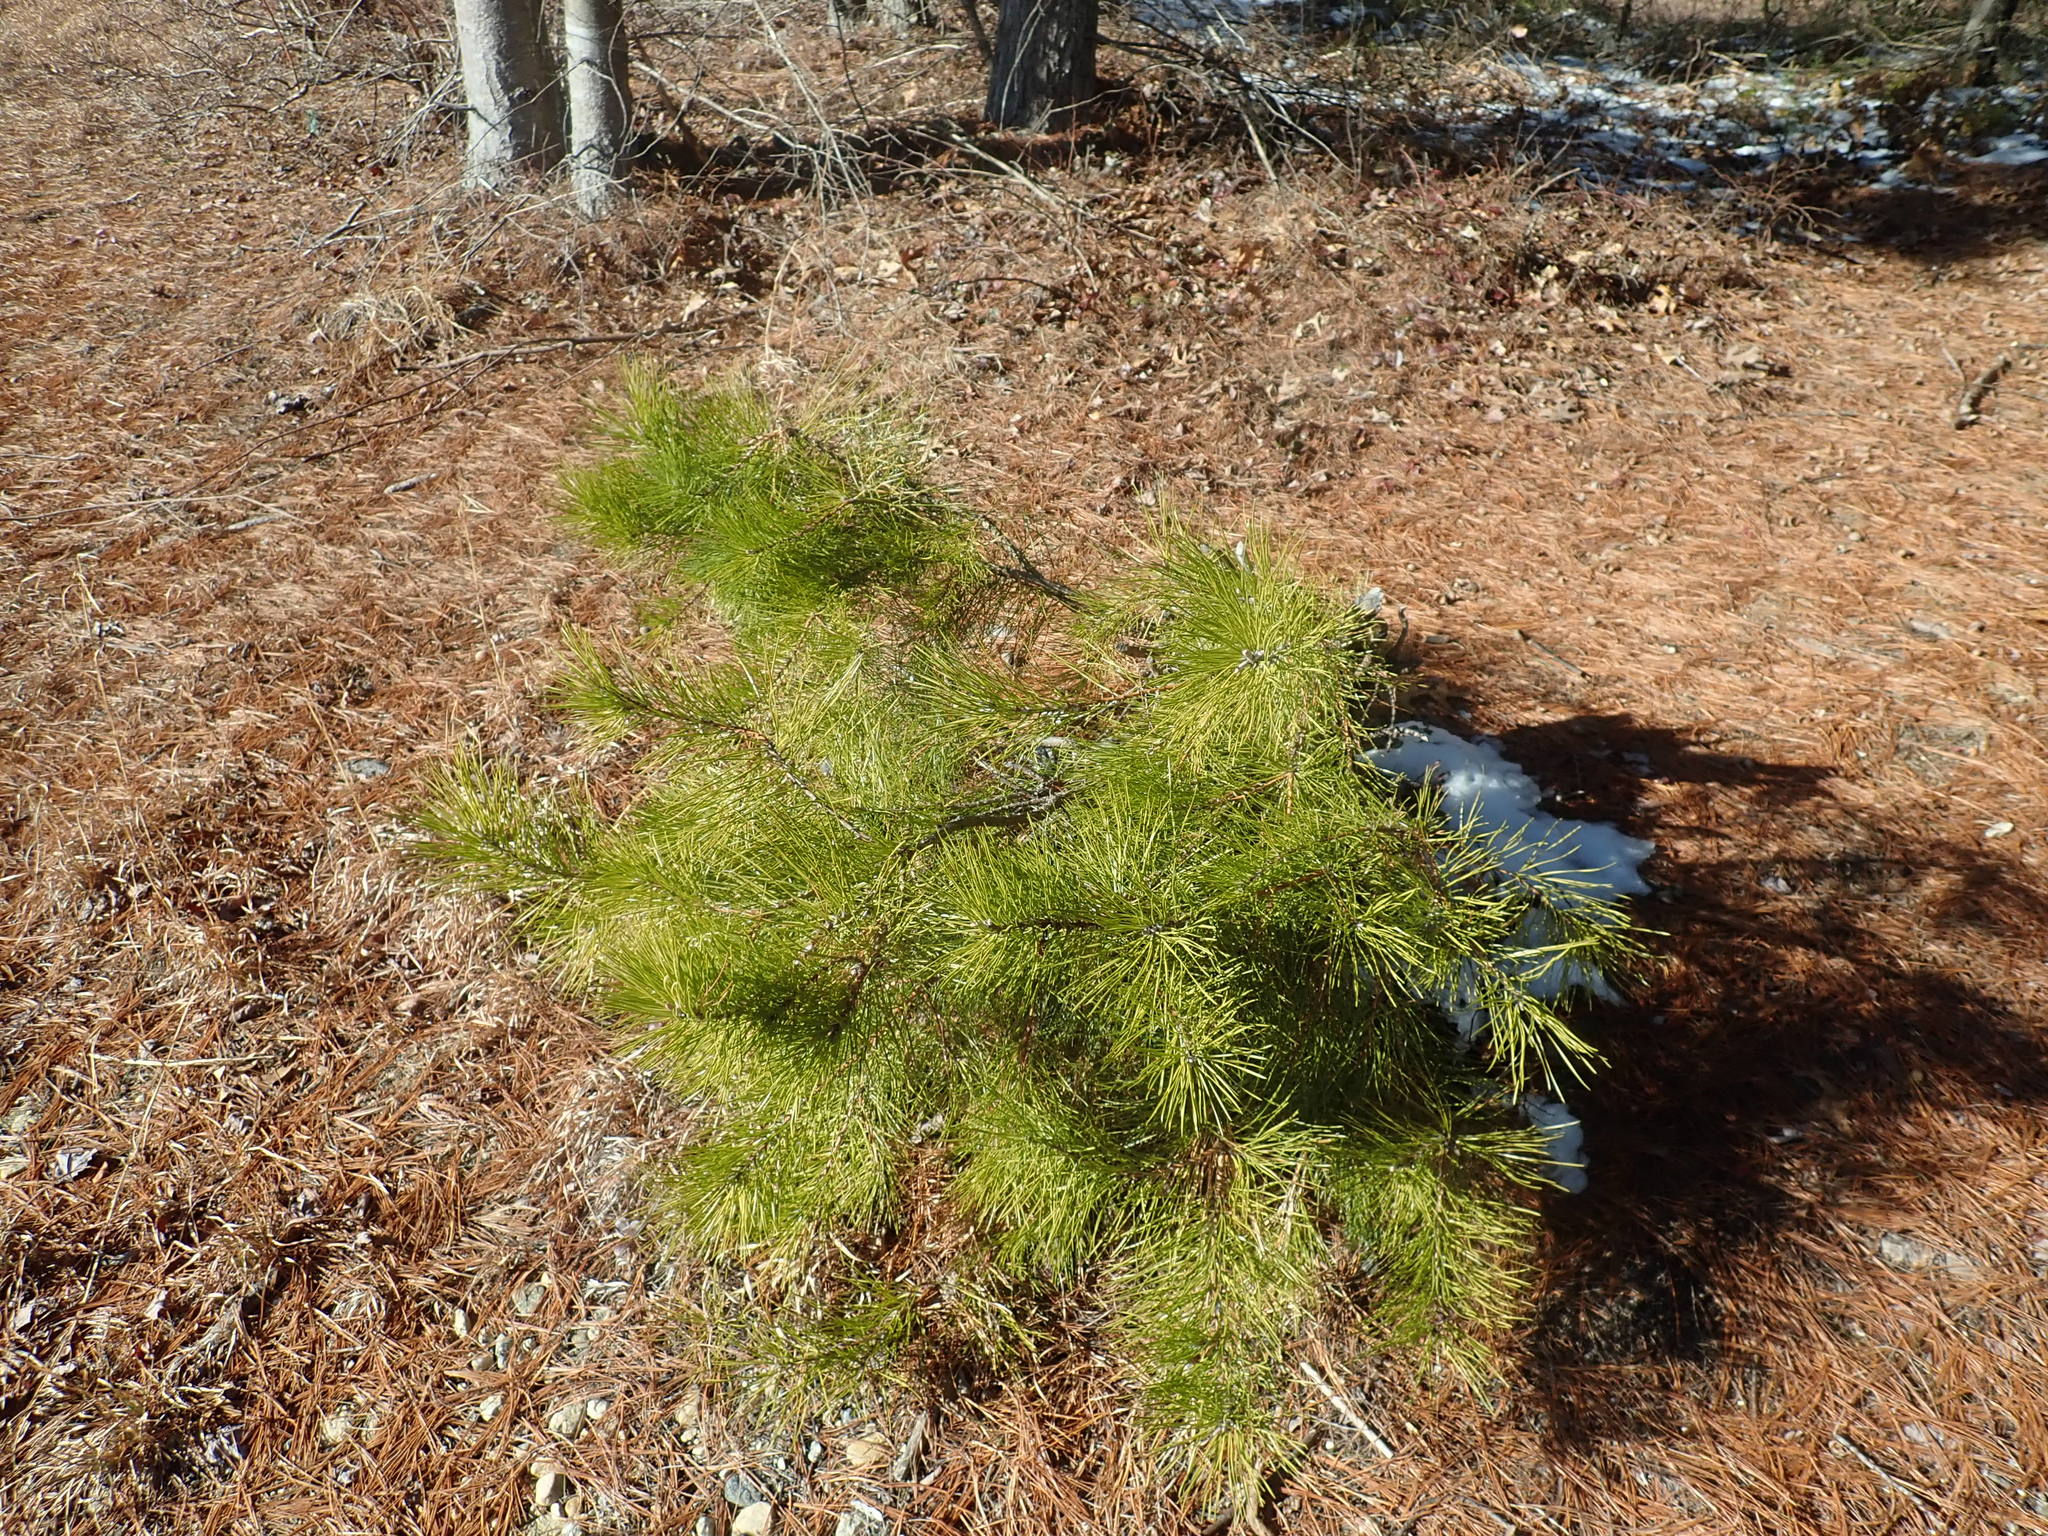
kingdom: Plantae
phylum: Tracheophyta
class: Pinopsida
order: Pinales
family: Pinaceae
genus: Pinus
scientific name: Pinus rigida
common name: Pitch pine
